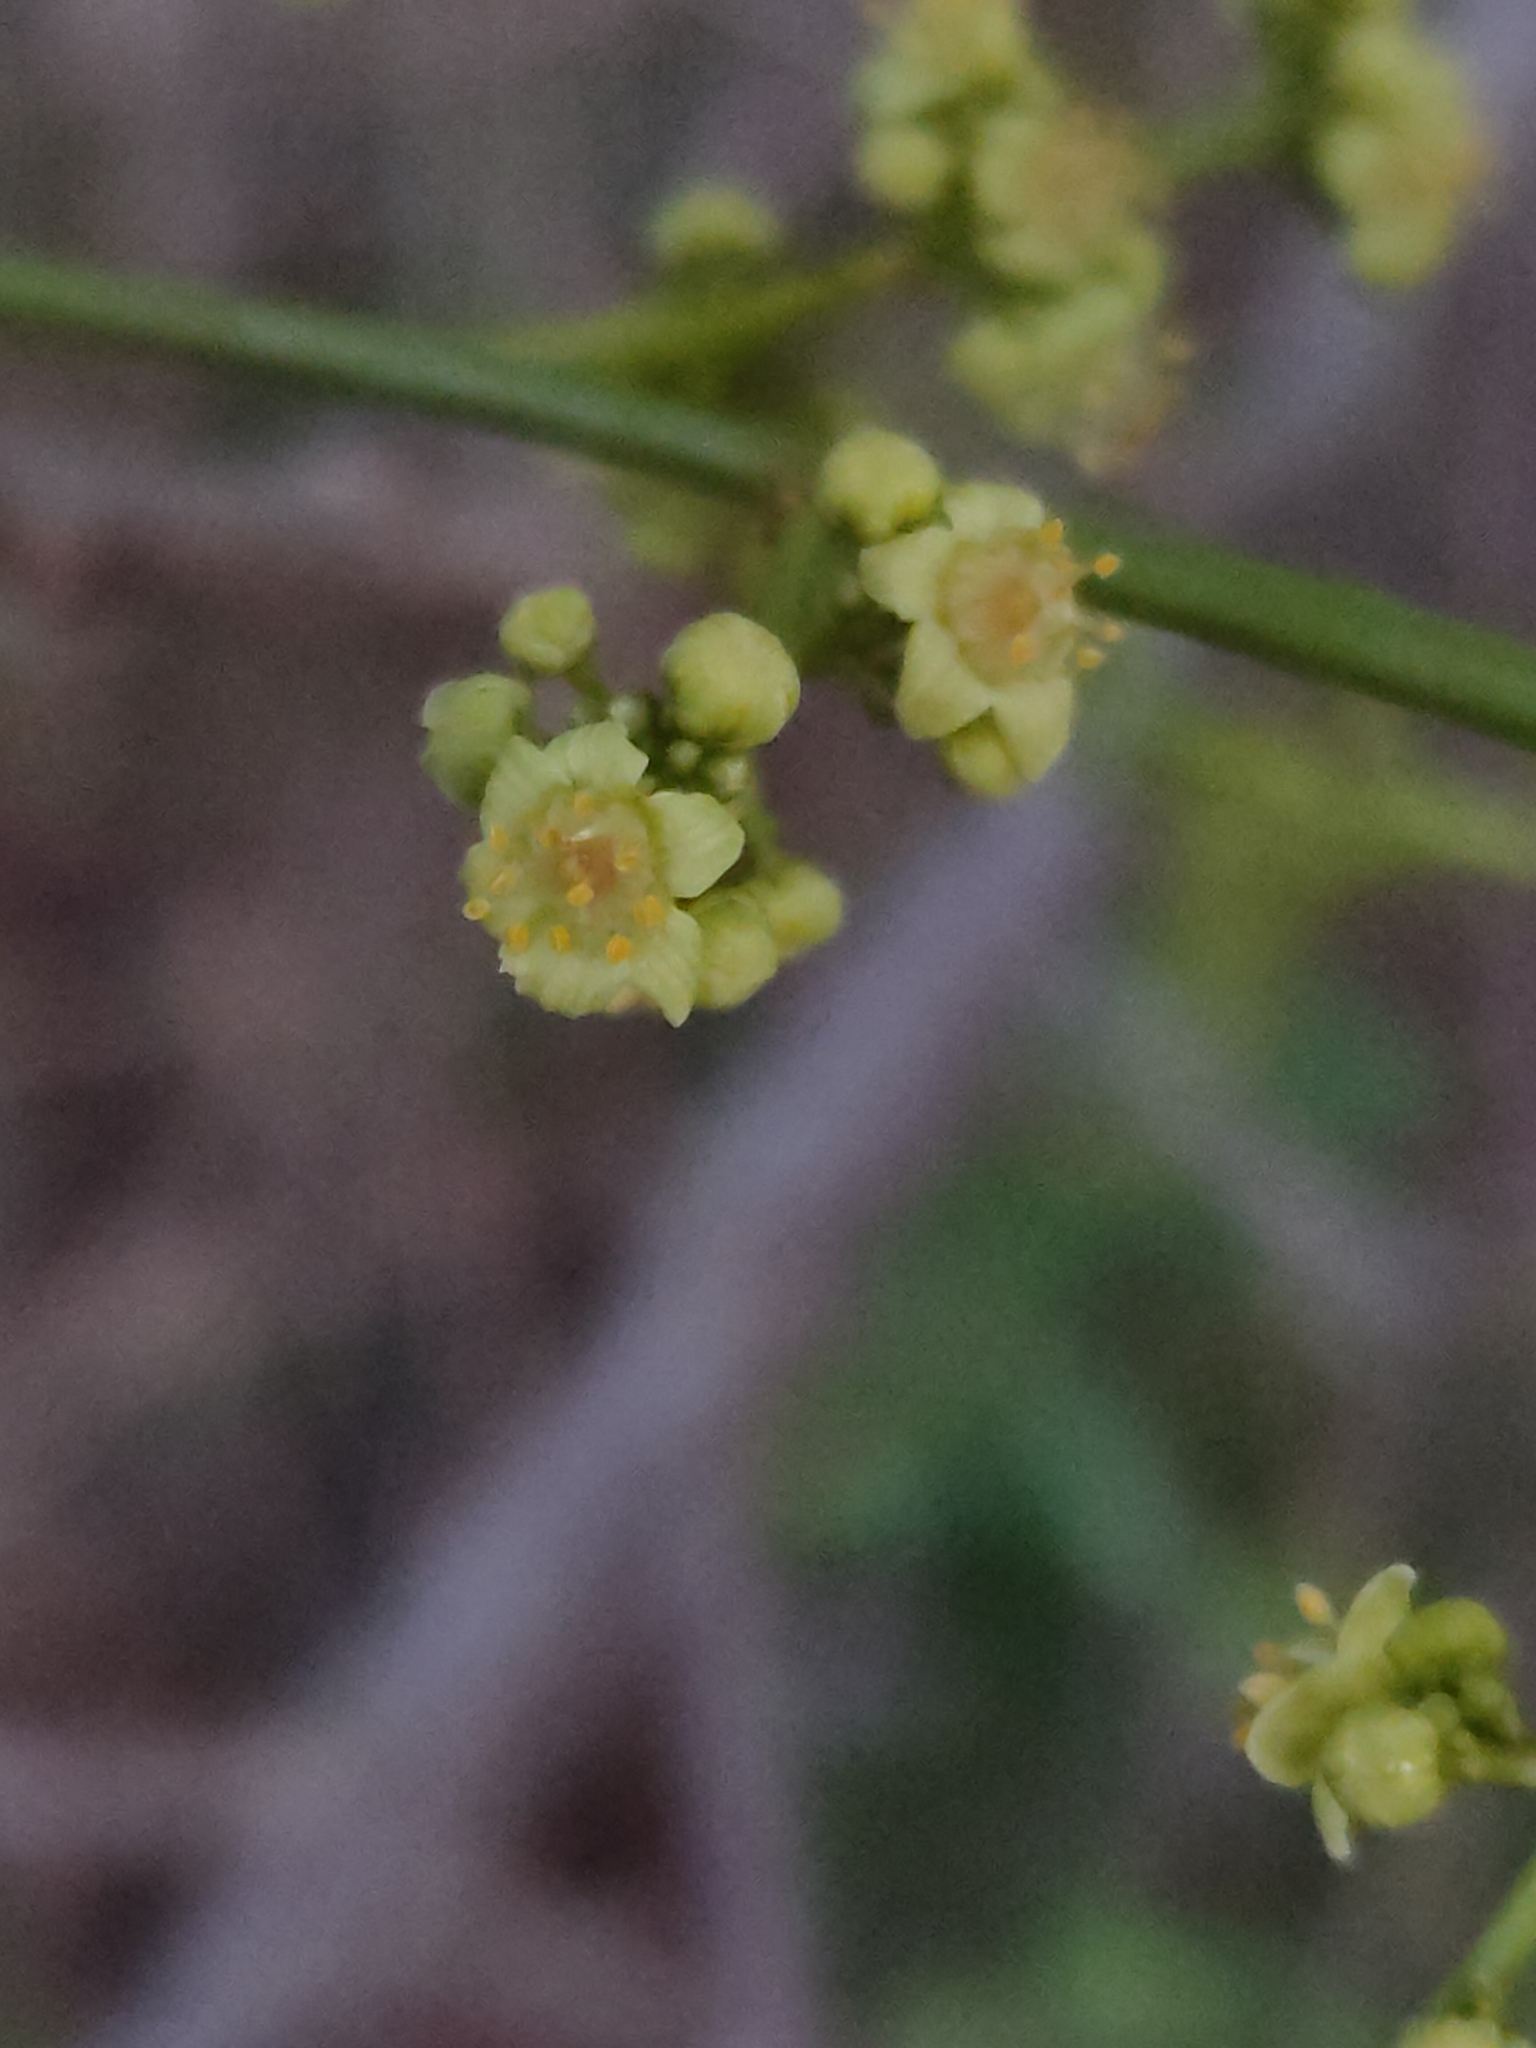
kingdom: Plantae
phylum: Tracheophyta
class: Magnoliopsida
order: Sapindales
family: Anacardiaceae
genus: Pleiogynium
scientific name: Pleiogynium timoriense
